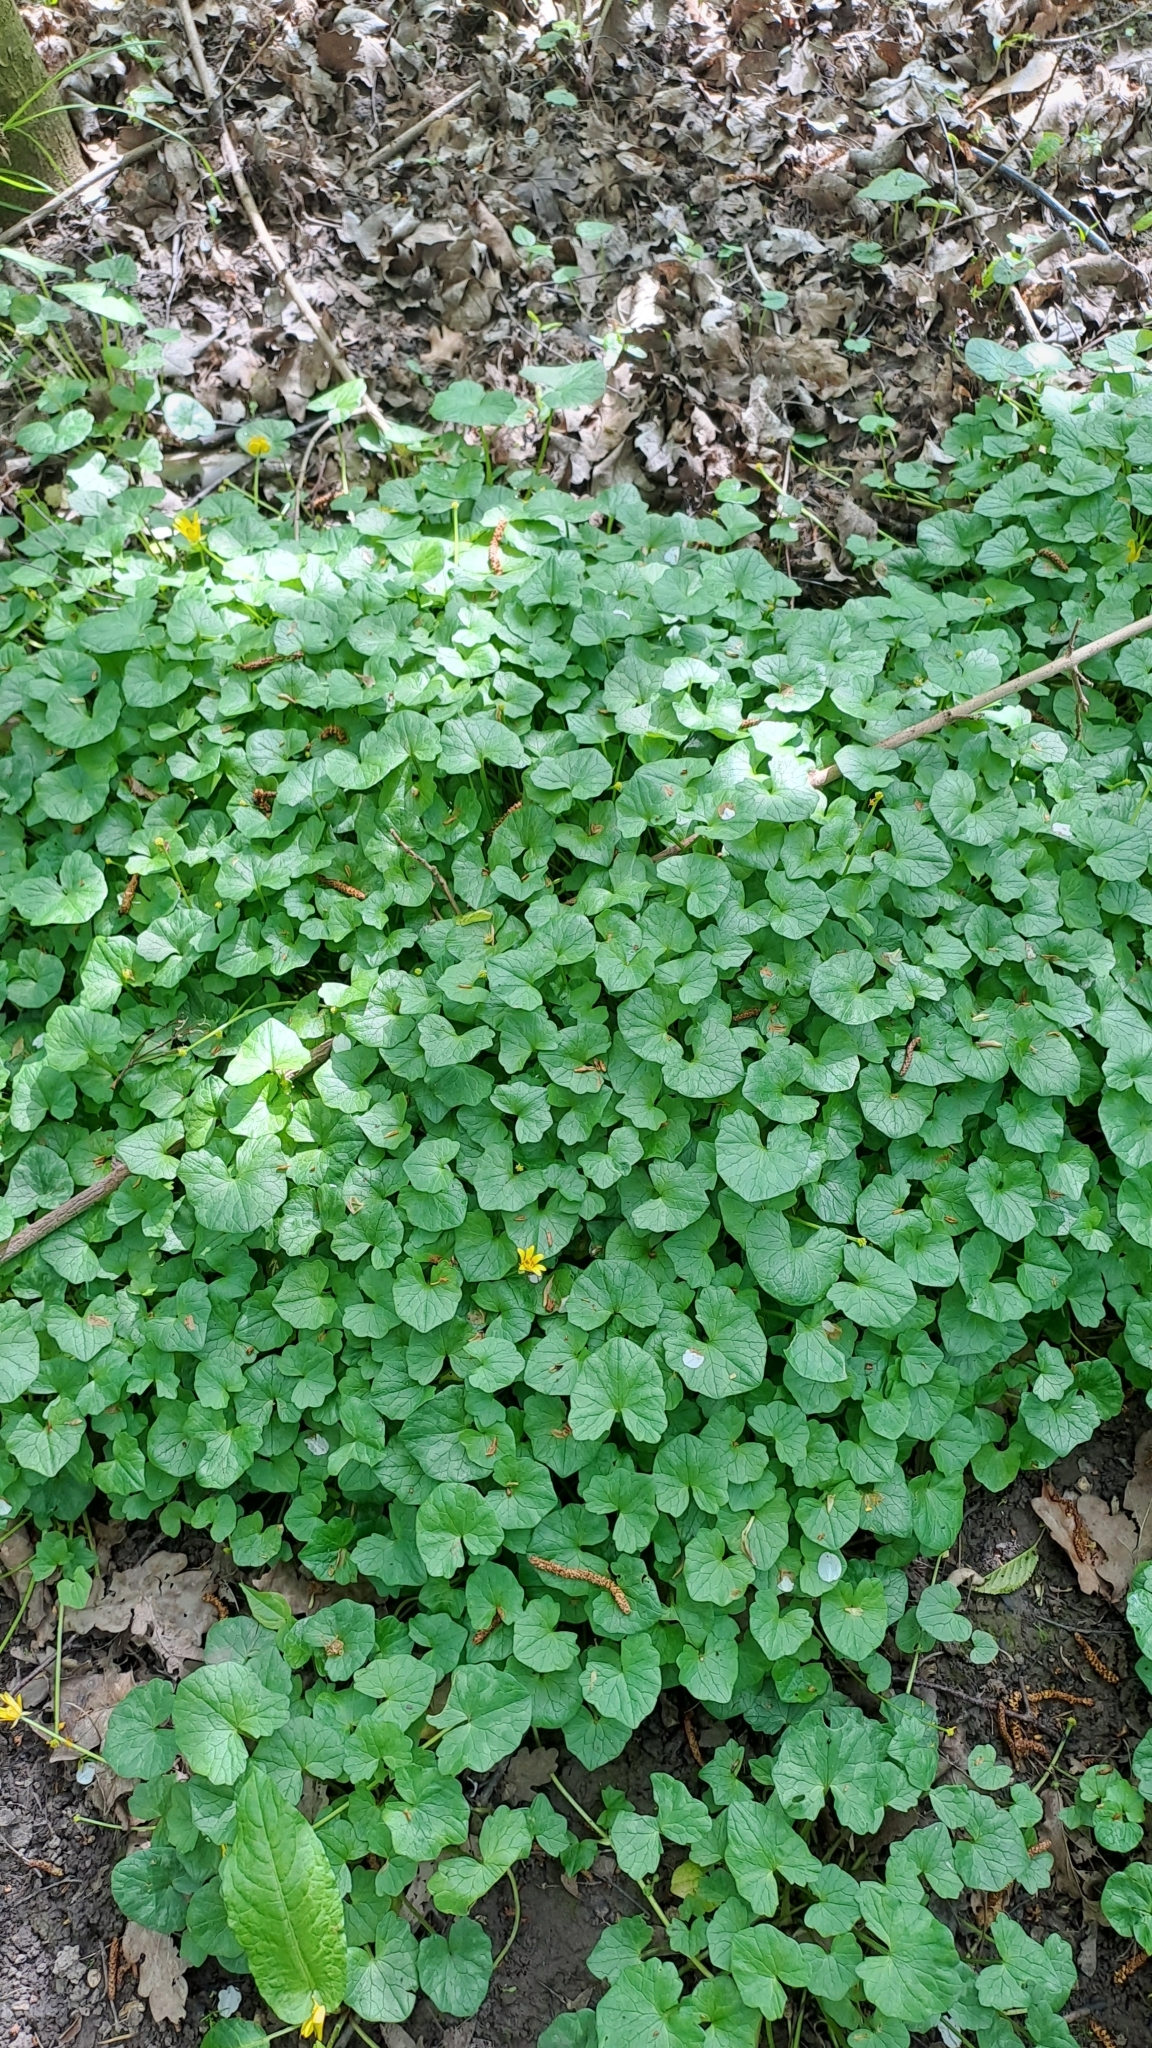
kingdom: Plantae
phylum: Tracheophyta
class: Magnoliopsida
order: Ranunculales
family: Ranunculaceae
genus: Ficaria
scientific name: Ficaria verna
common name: Lesser celandine
